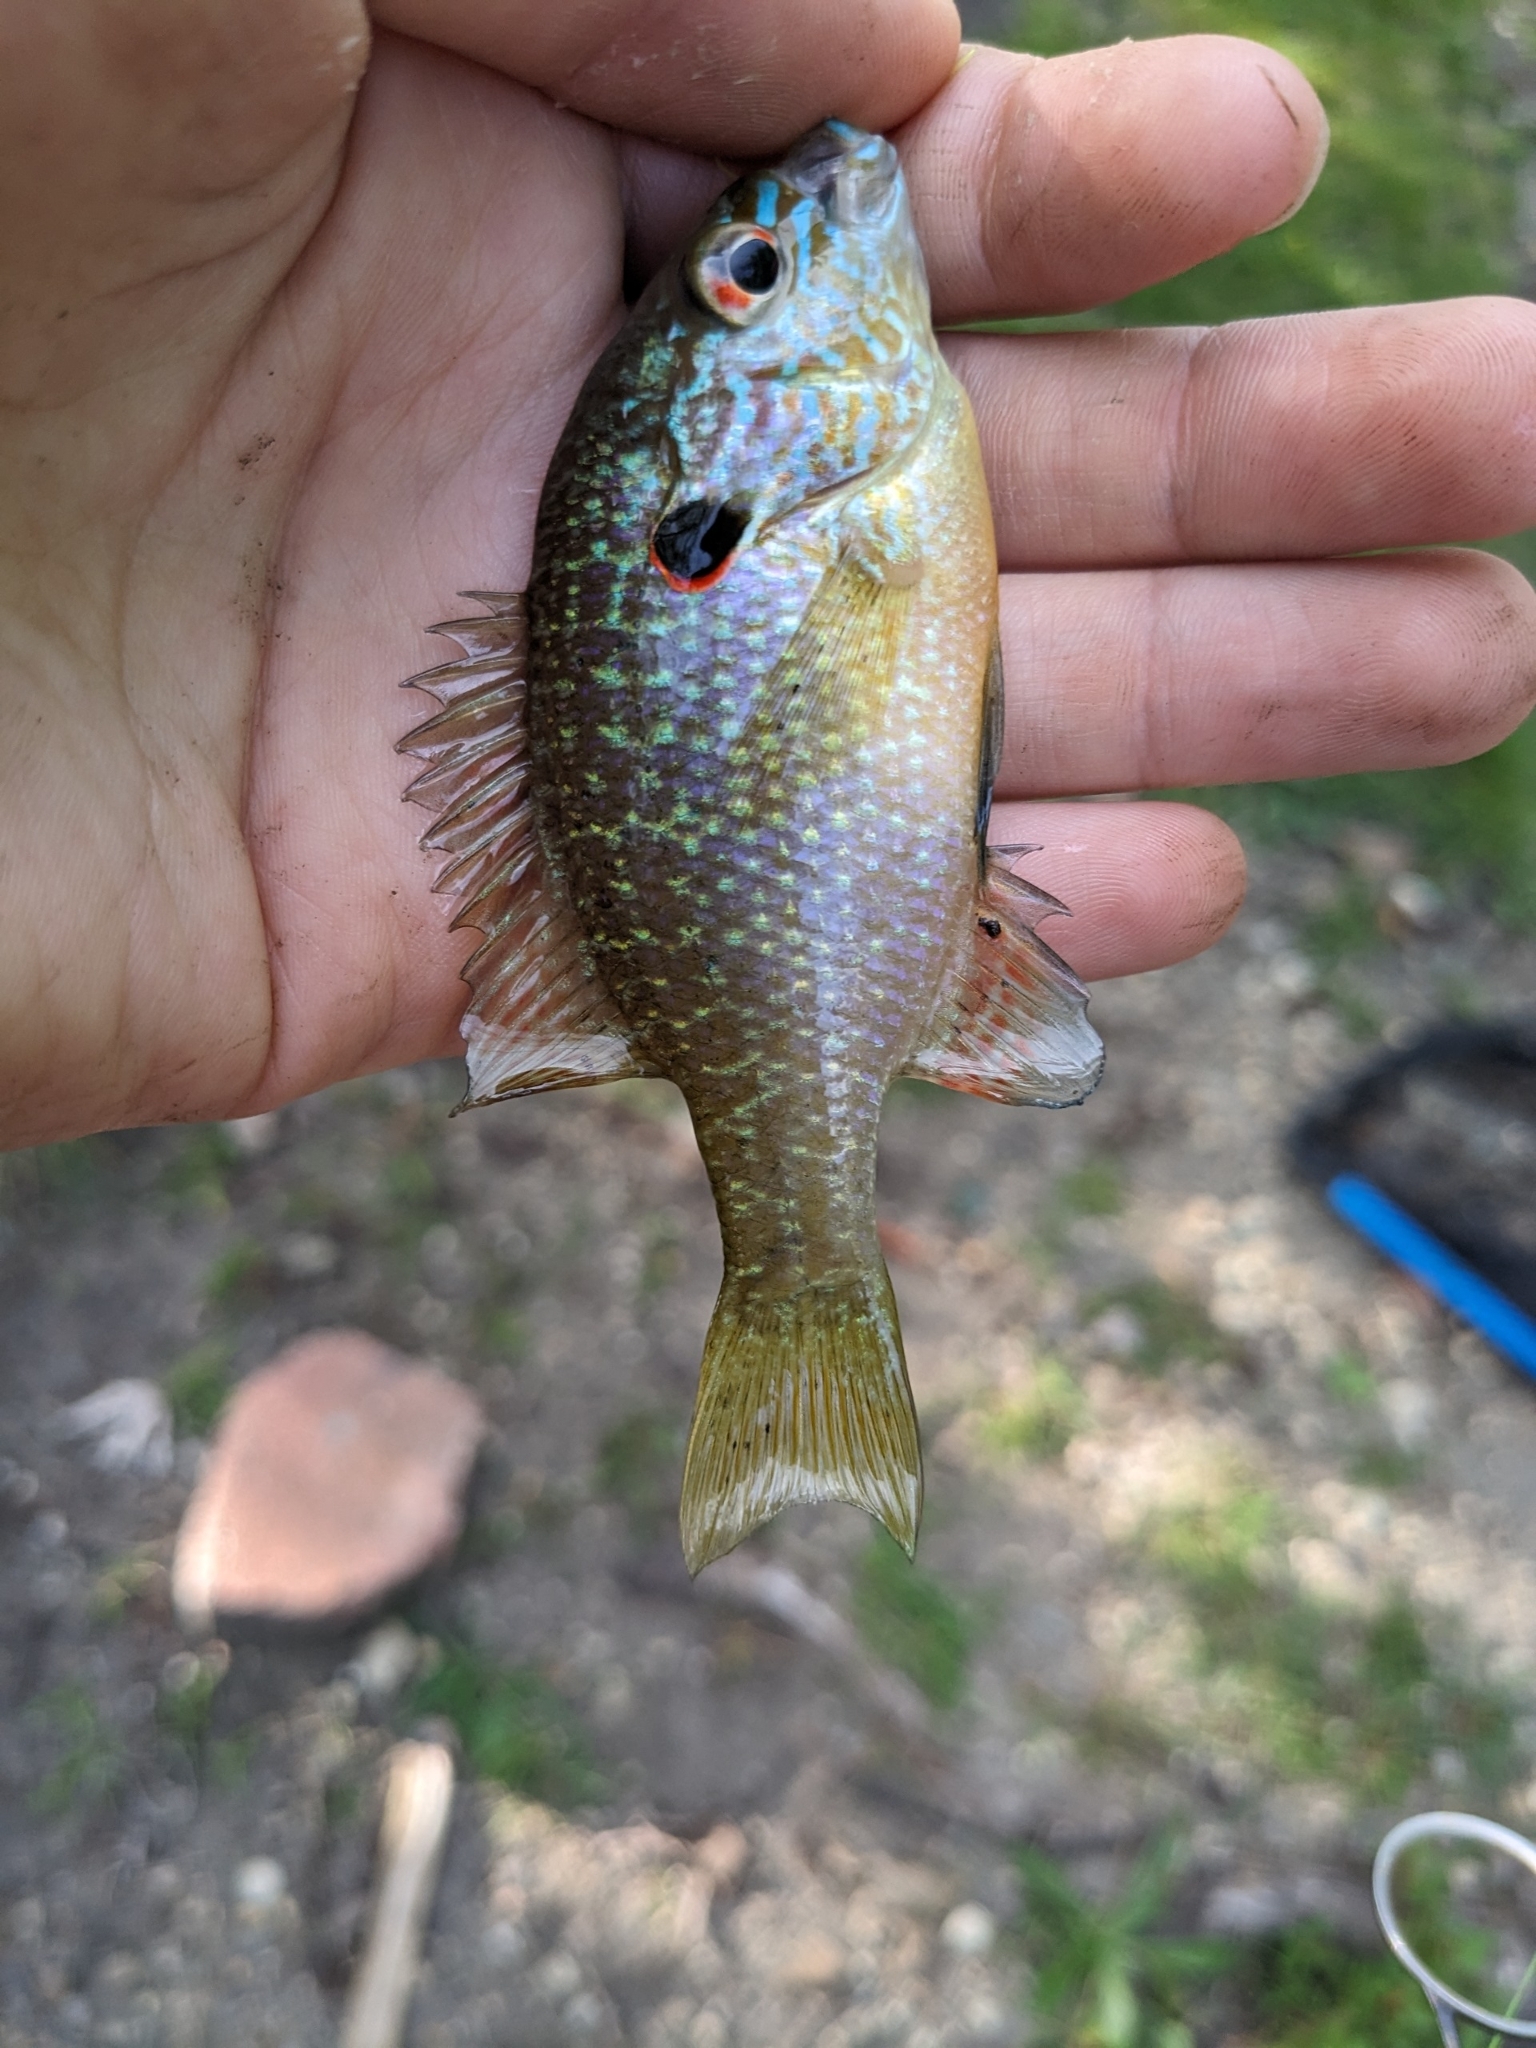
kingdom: Animalia
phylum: Chordata
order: Perciformes
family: Centrarchidae
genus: Lepomis
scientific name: Lepomis peltastes
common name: Northern sunfish
